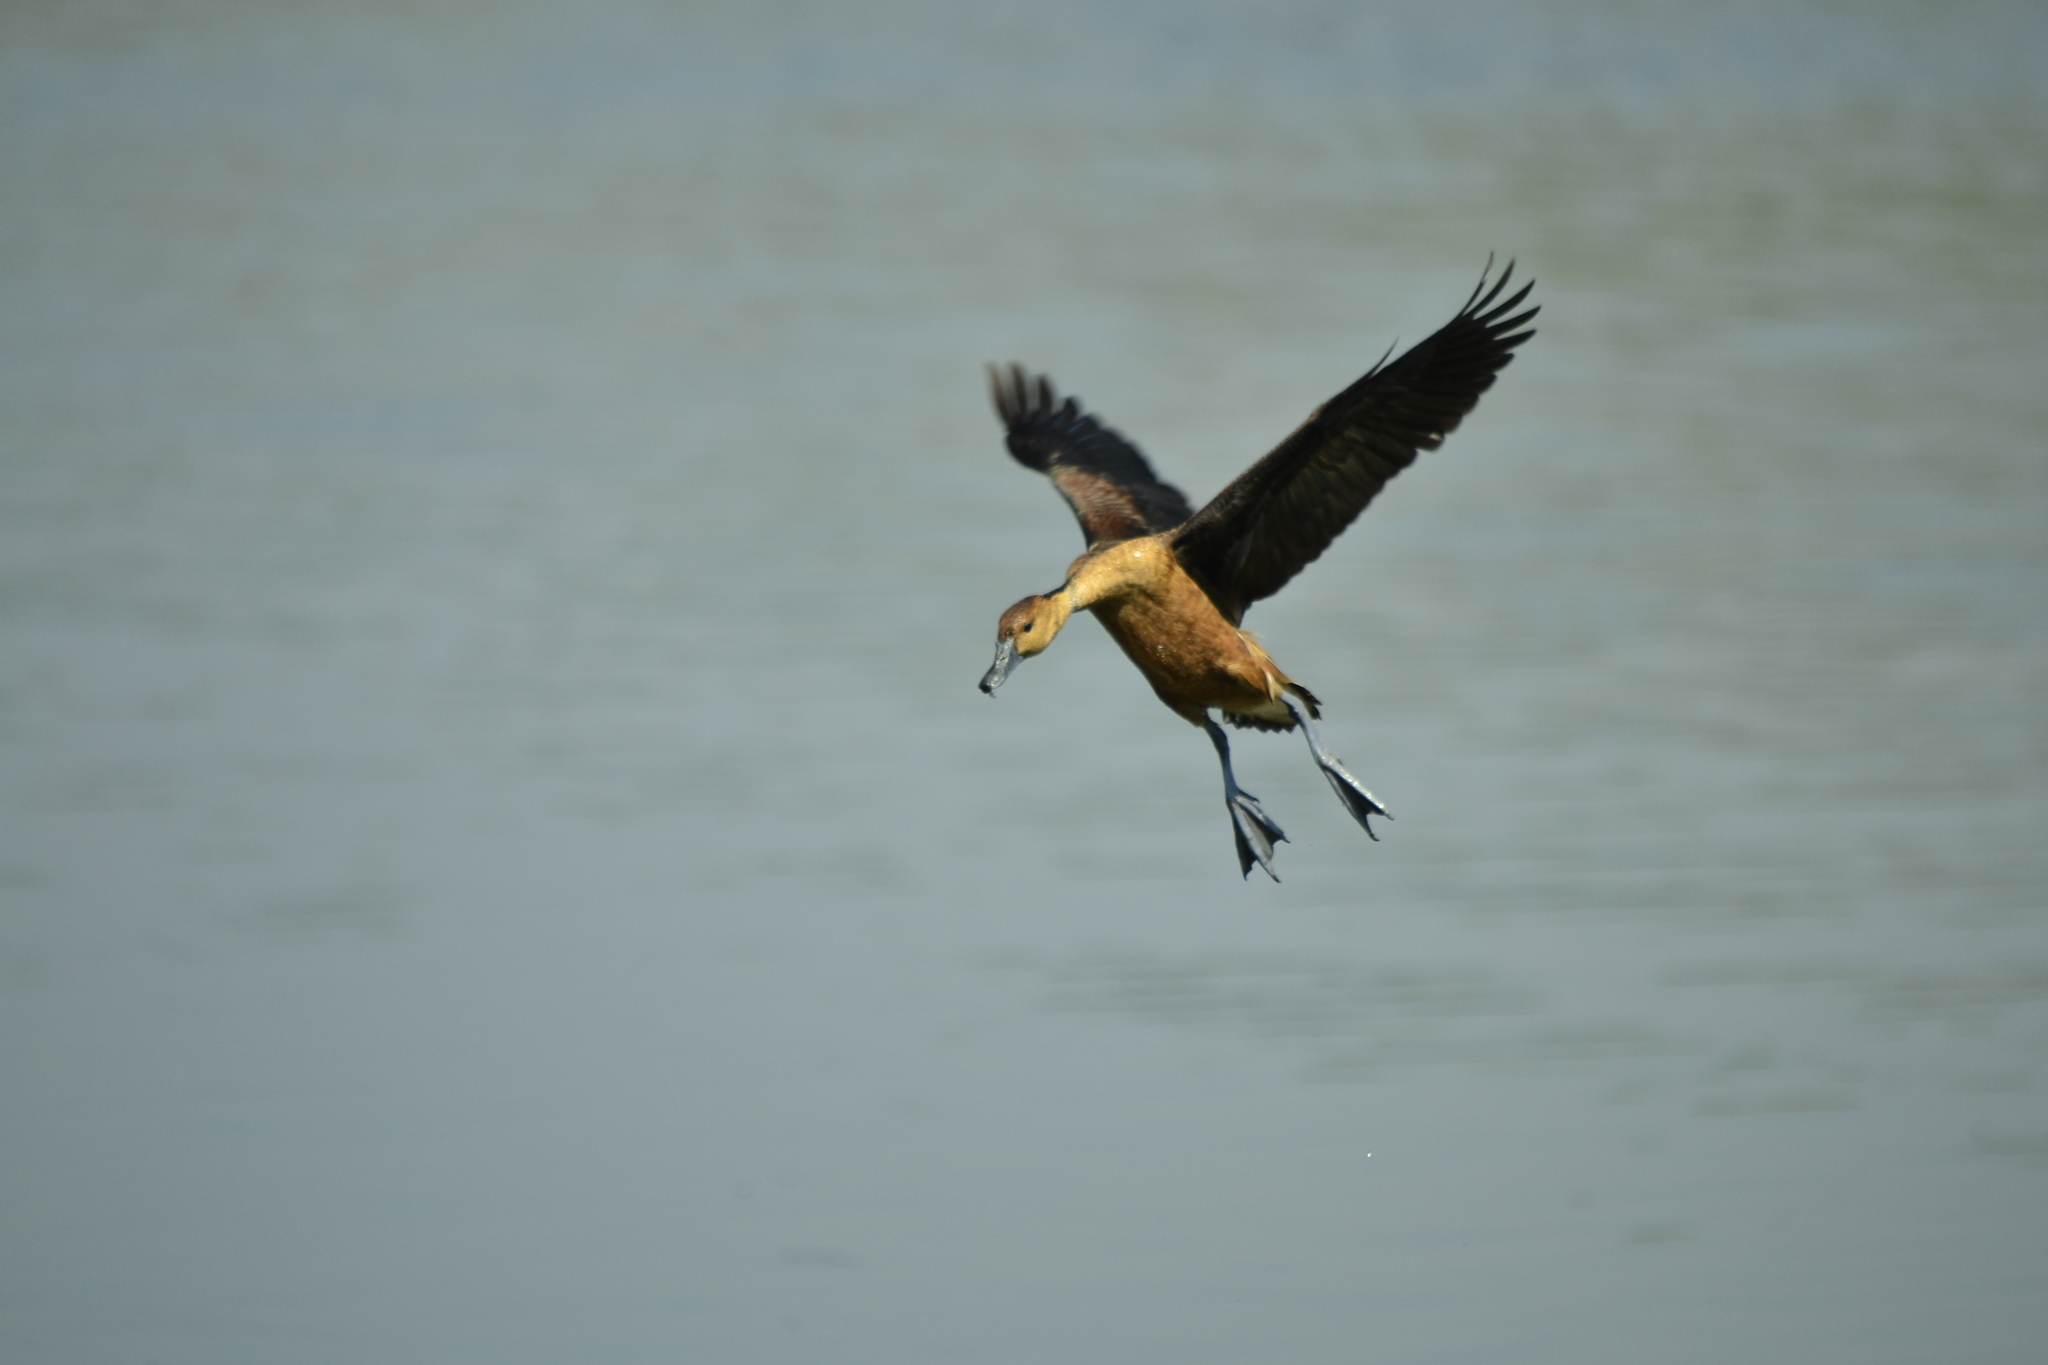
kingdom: Animalia
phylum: Chordata
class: Aves
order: Anseriformes
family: Anatidae
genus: Dendrocygna
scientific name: Dendrocygna bicolor
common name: Fulvous whistling duck
